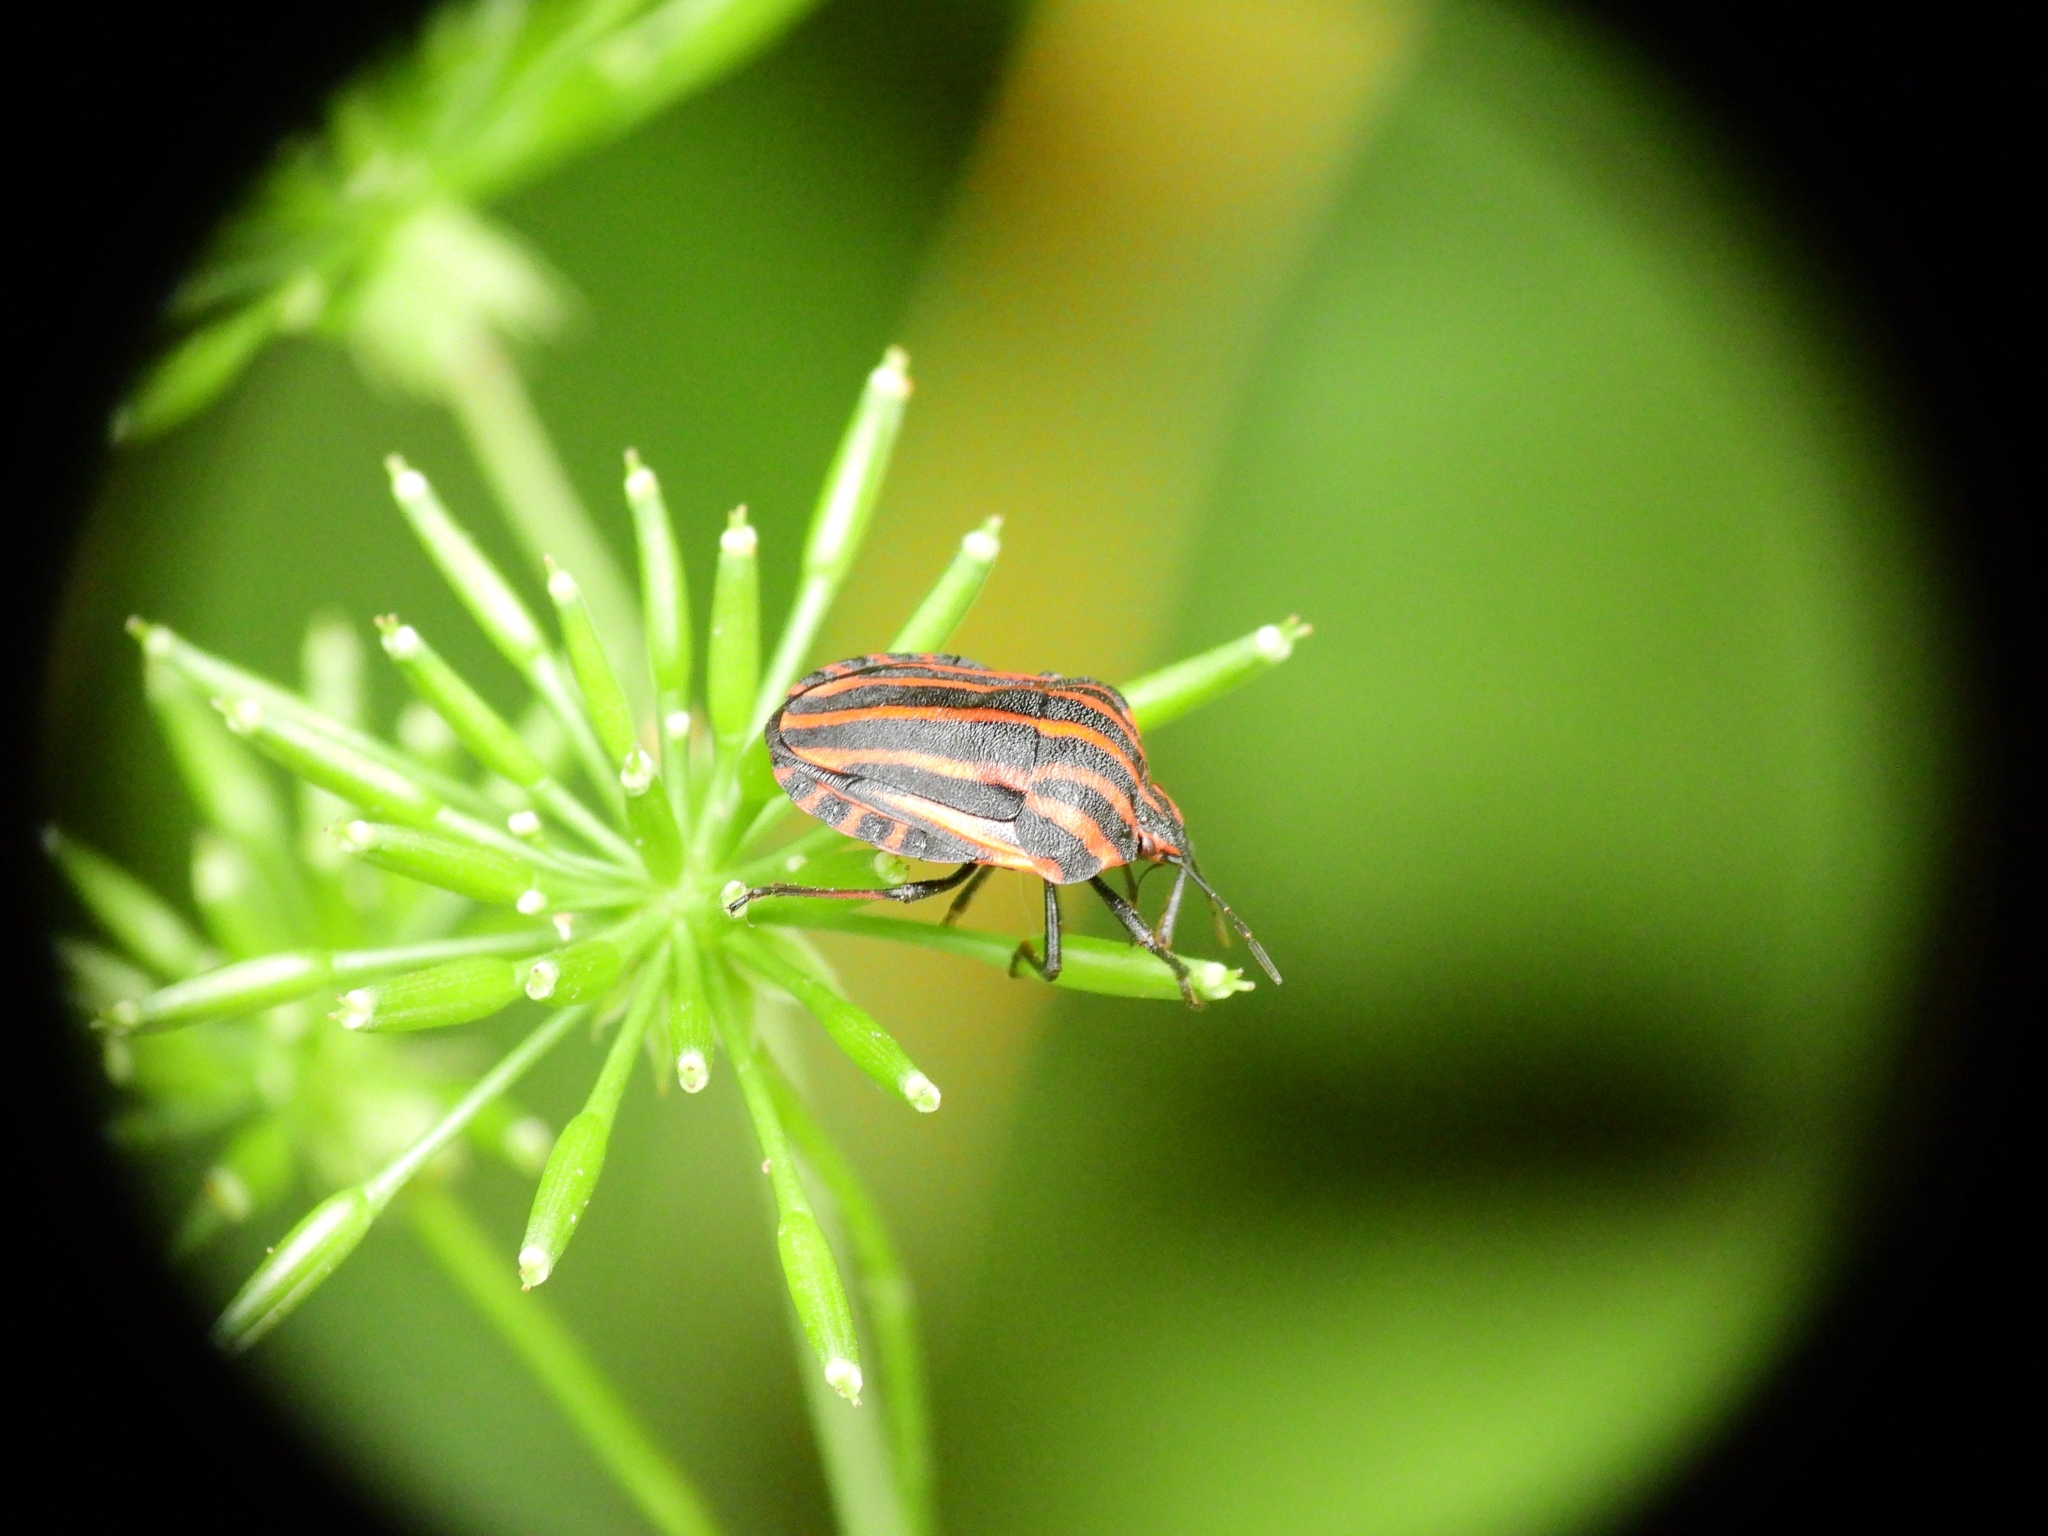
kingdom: Animalia
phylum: Arthropoda
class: Insecta
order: Hemiptera
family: Pentatomidae
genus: Graphosoma
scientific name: Graphosoma italicum
